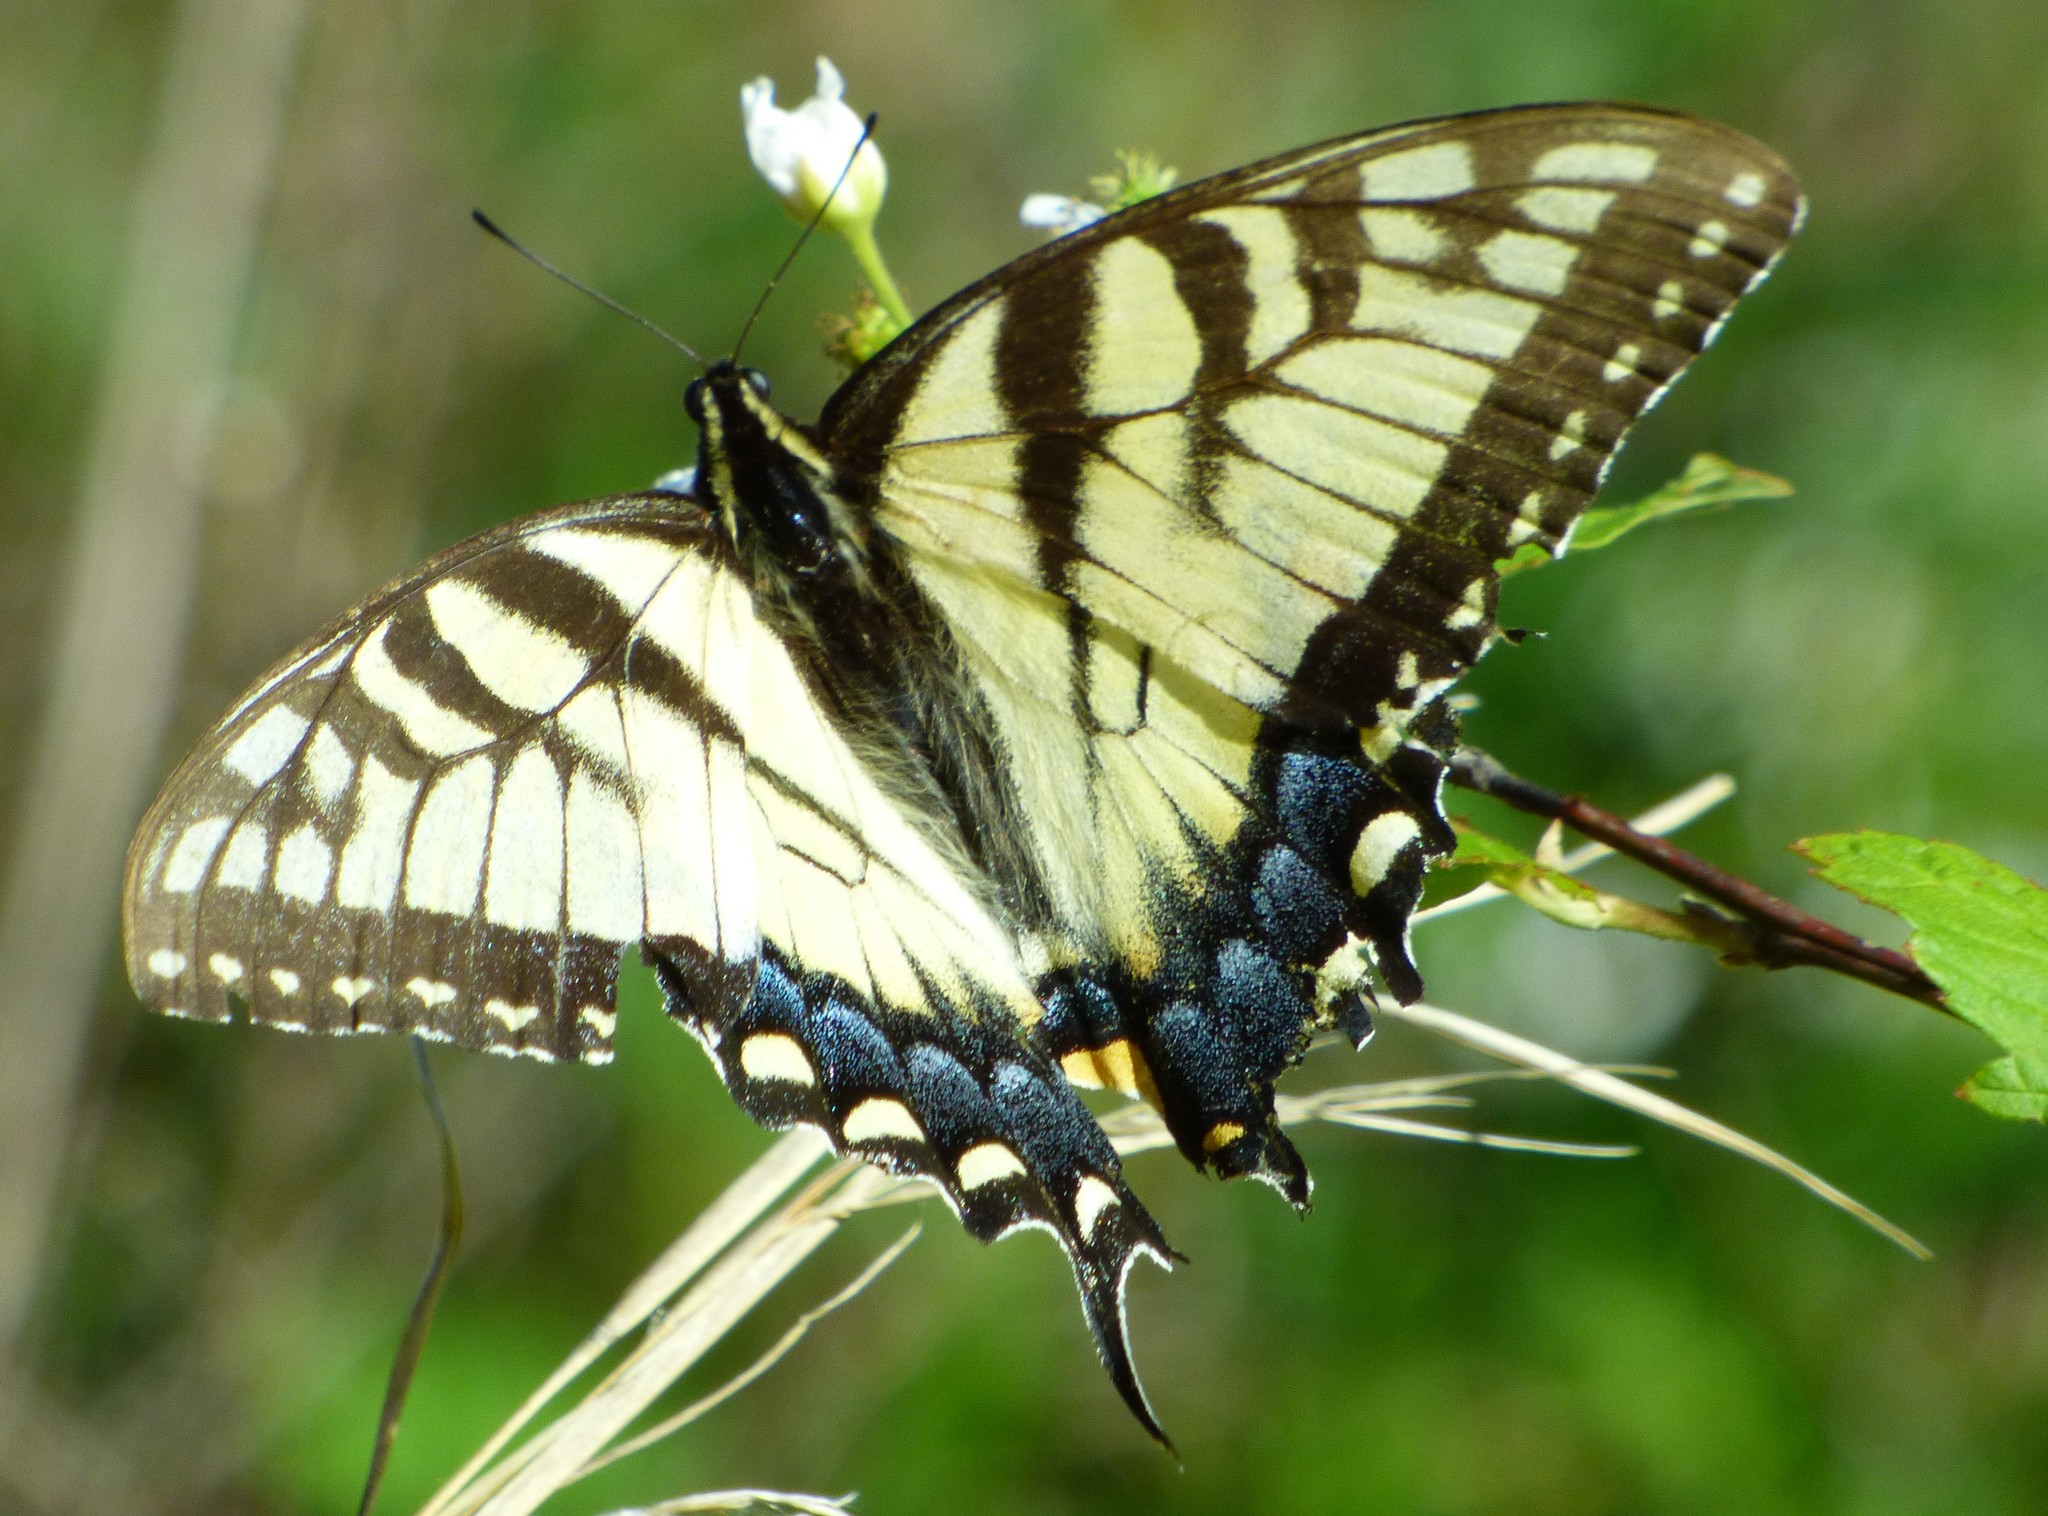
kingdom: Animalia
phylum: Arthropoda
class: Insecta
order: Lepidoptera
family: Papilionidae
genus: Papilio
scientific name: Papilio glaucus
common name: Tiger swallowtail
